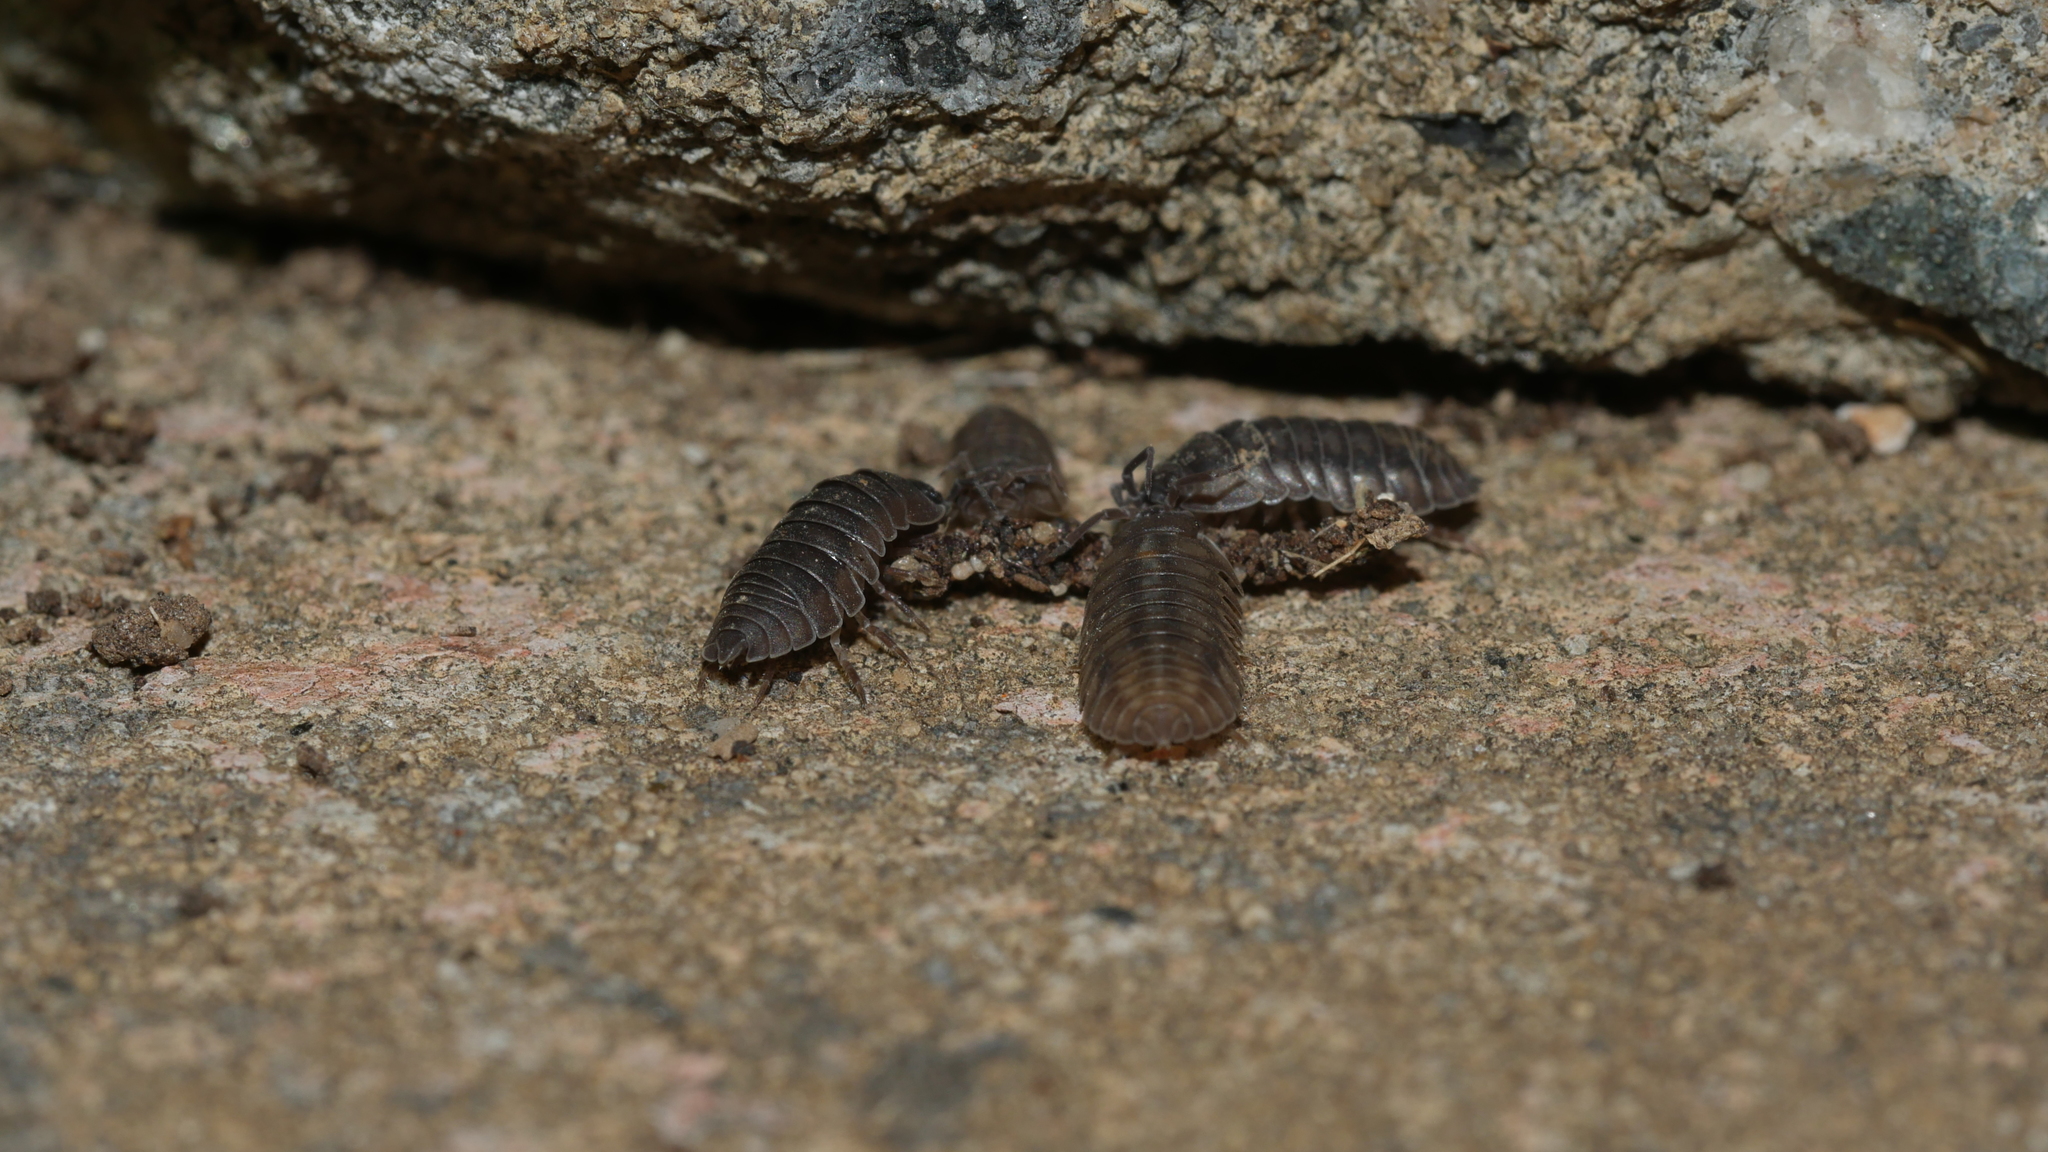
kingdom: Animalia
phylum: Arthropoda
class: Malacostraca
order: Isopoda
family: Armadillidiidae
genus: Armadillidium
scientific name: Armadillidium nasatum
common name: Isopod
